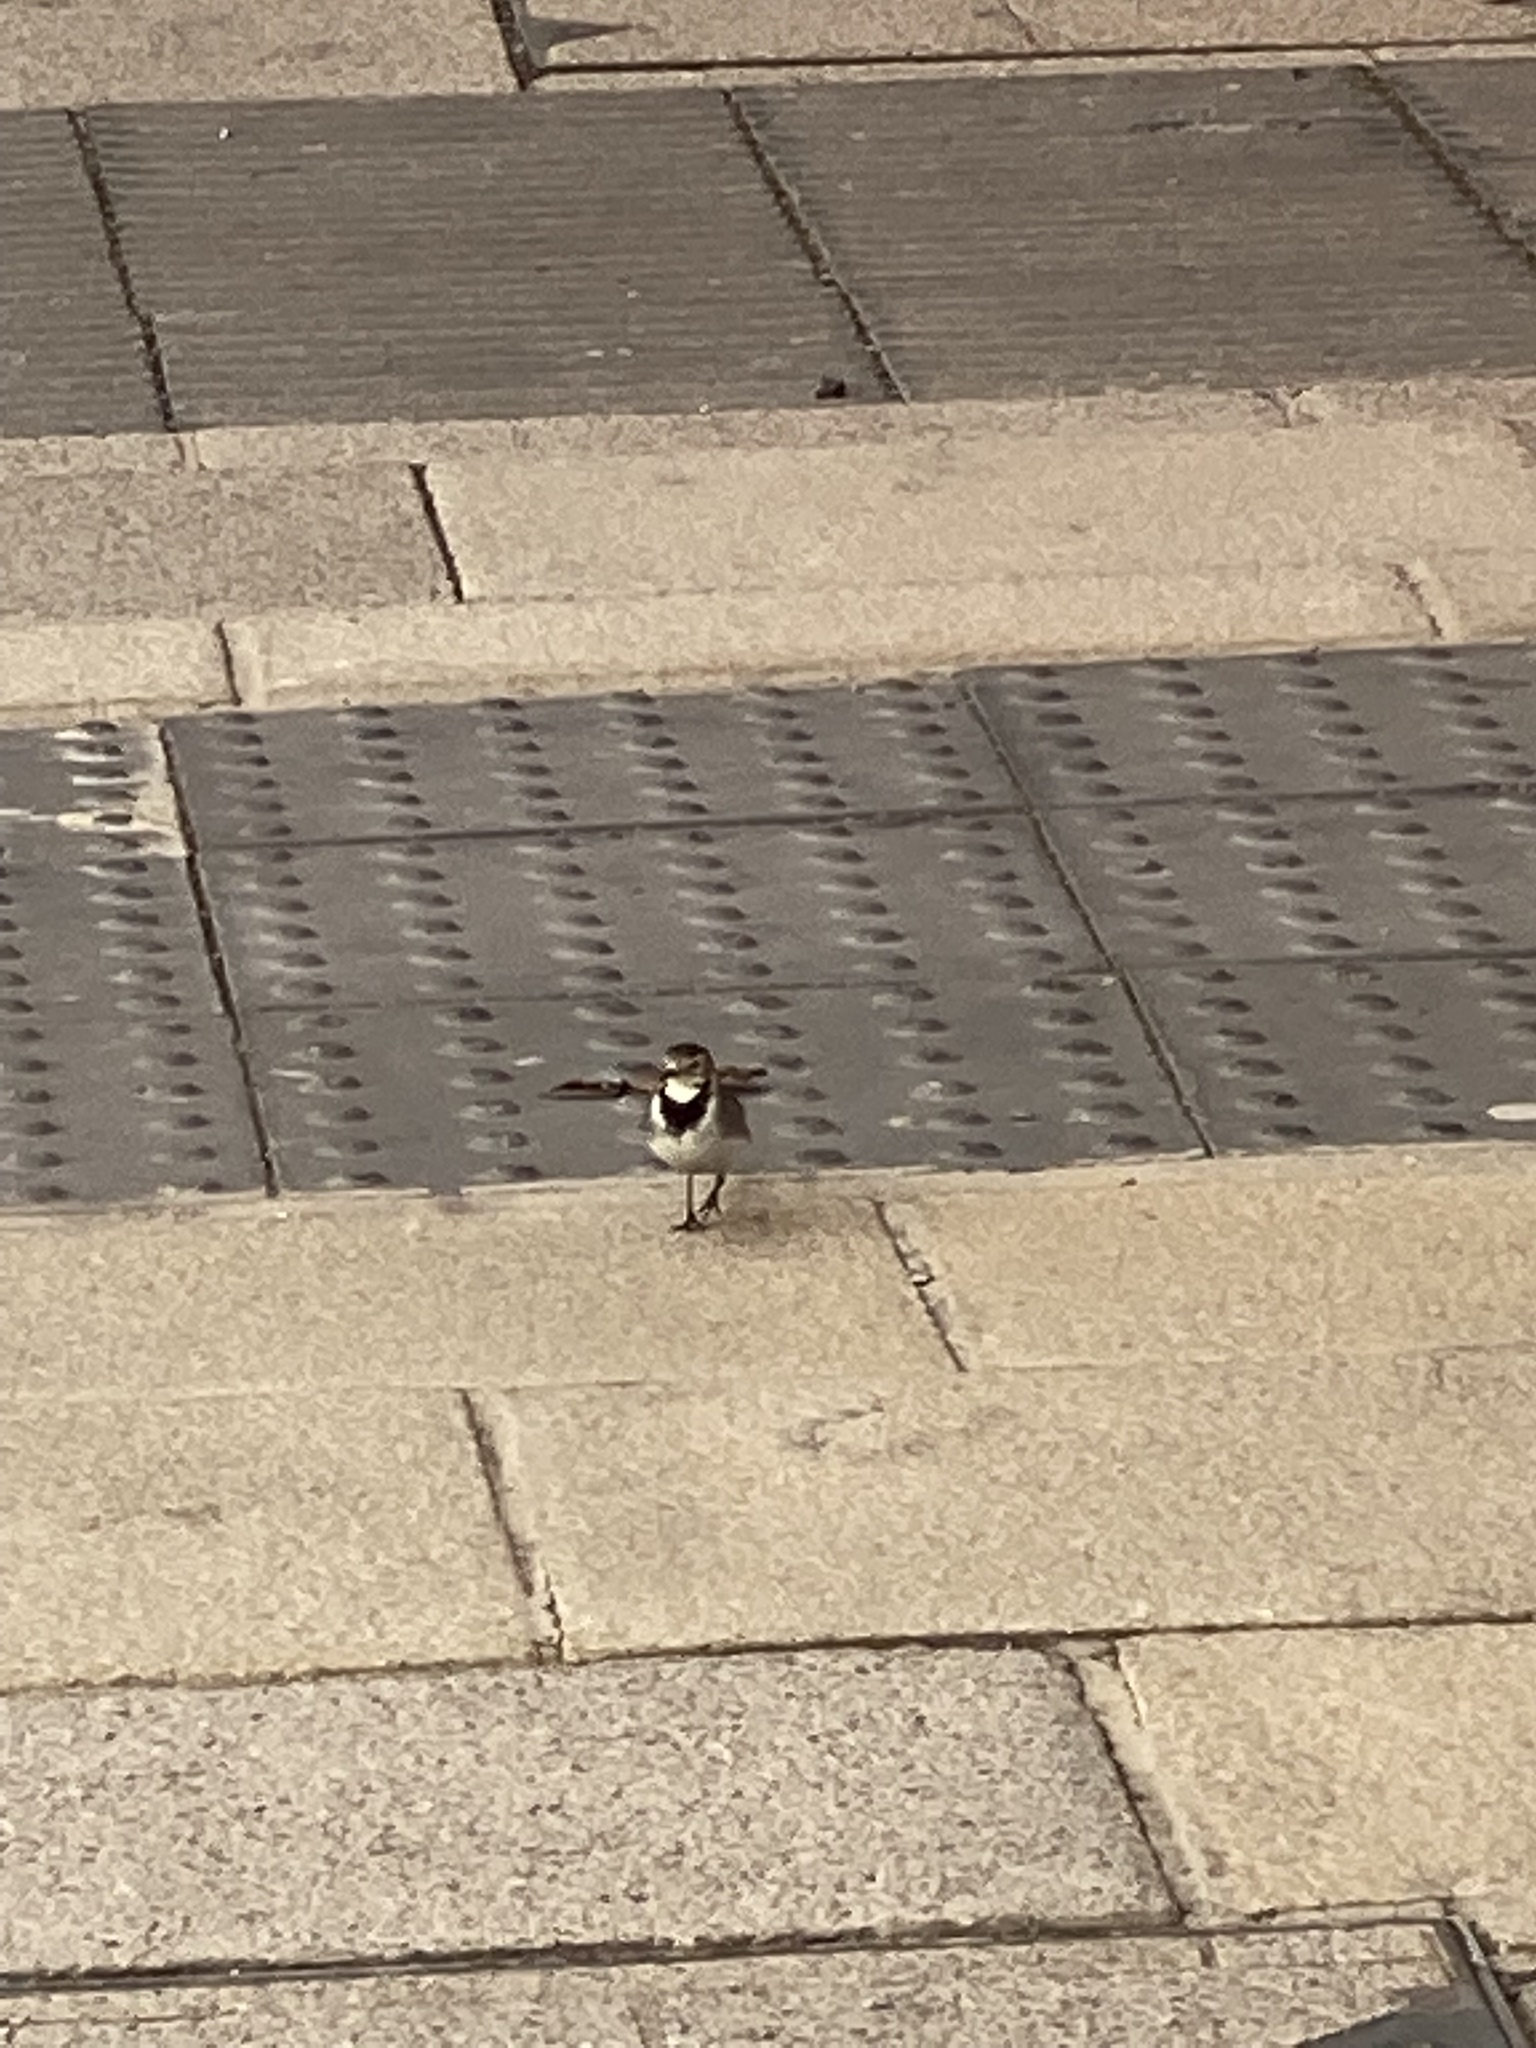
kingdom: Animalia
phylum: Chordata
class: Aves
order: Passeriformes
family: Motacillidae
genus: Motacilla
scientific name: Motacilla alba
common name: White wagtail
